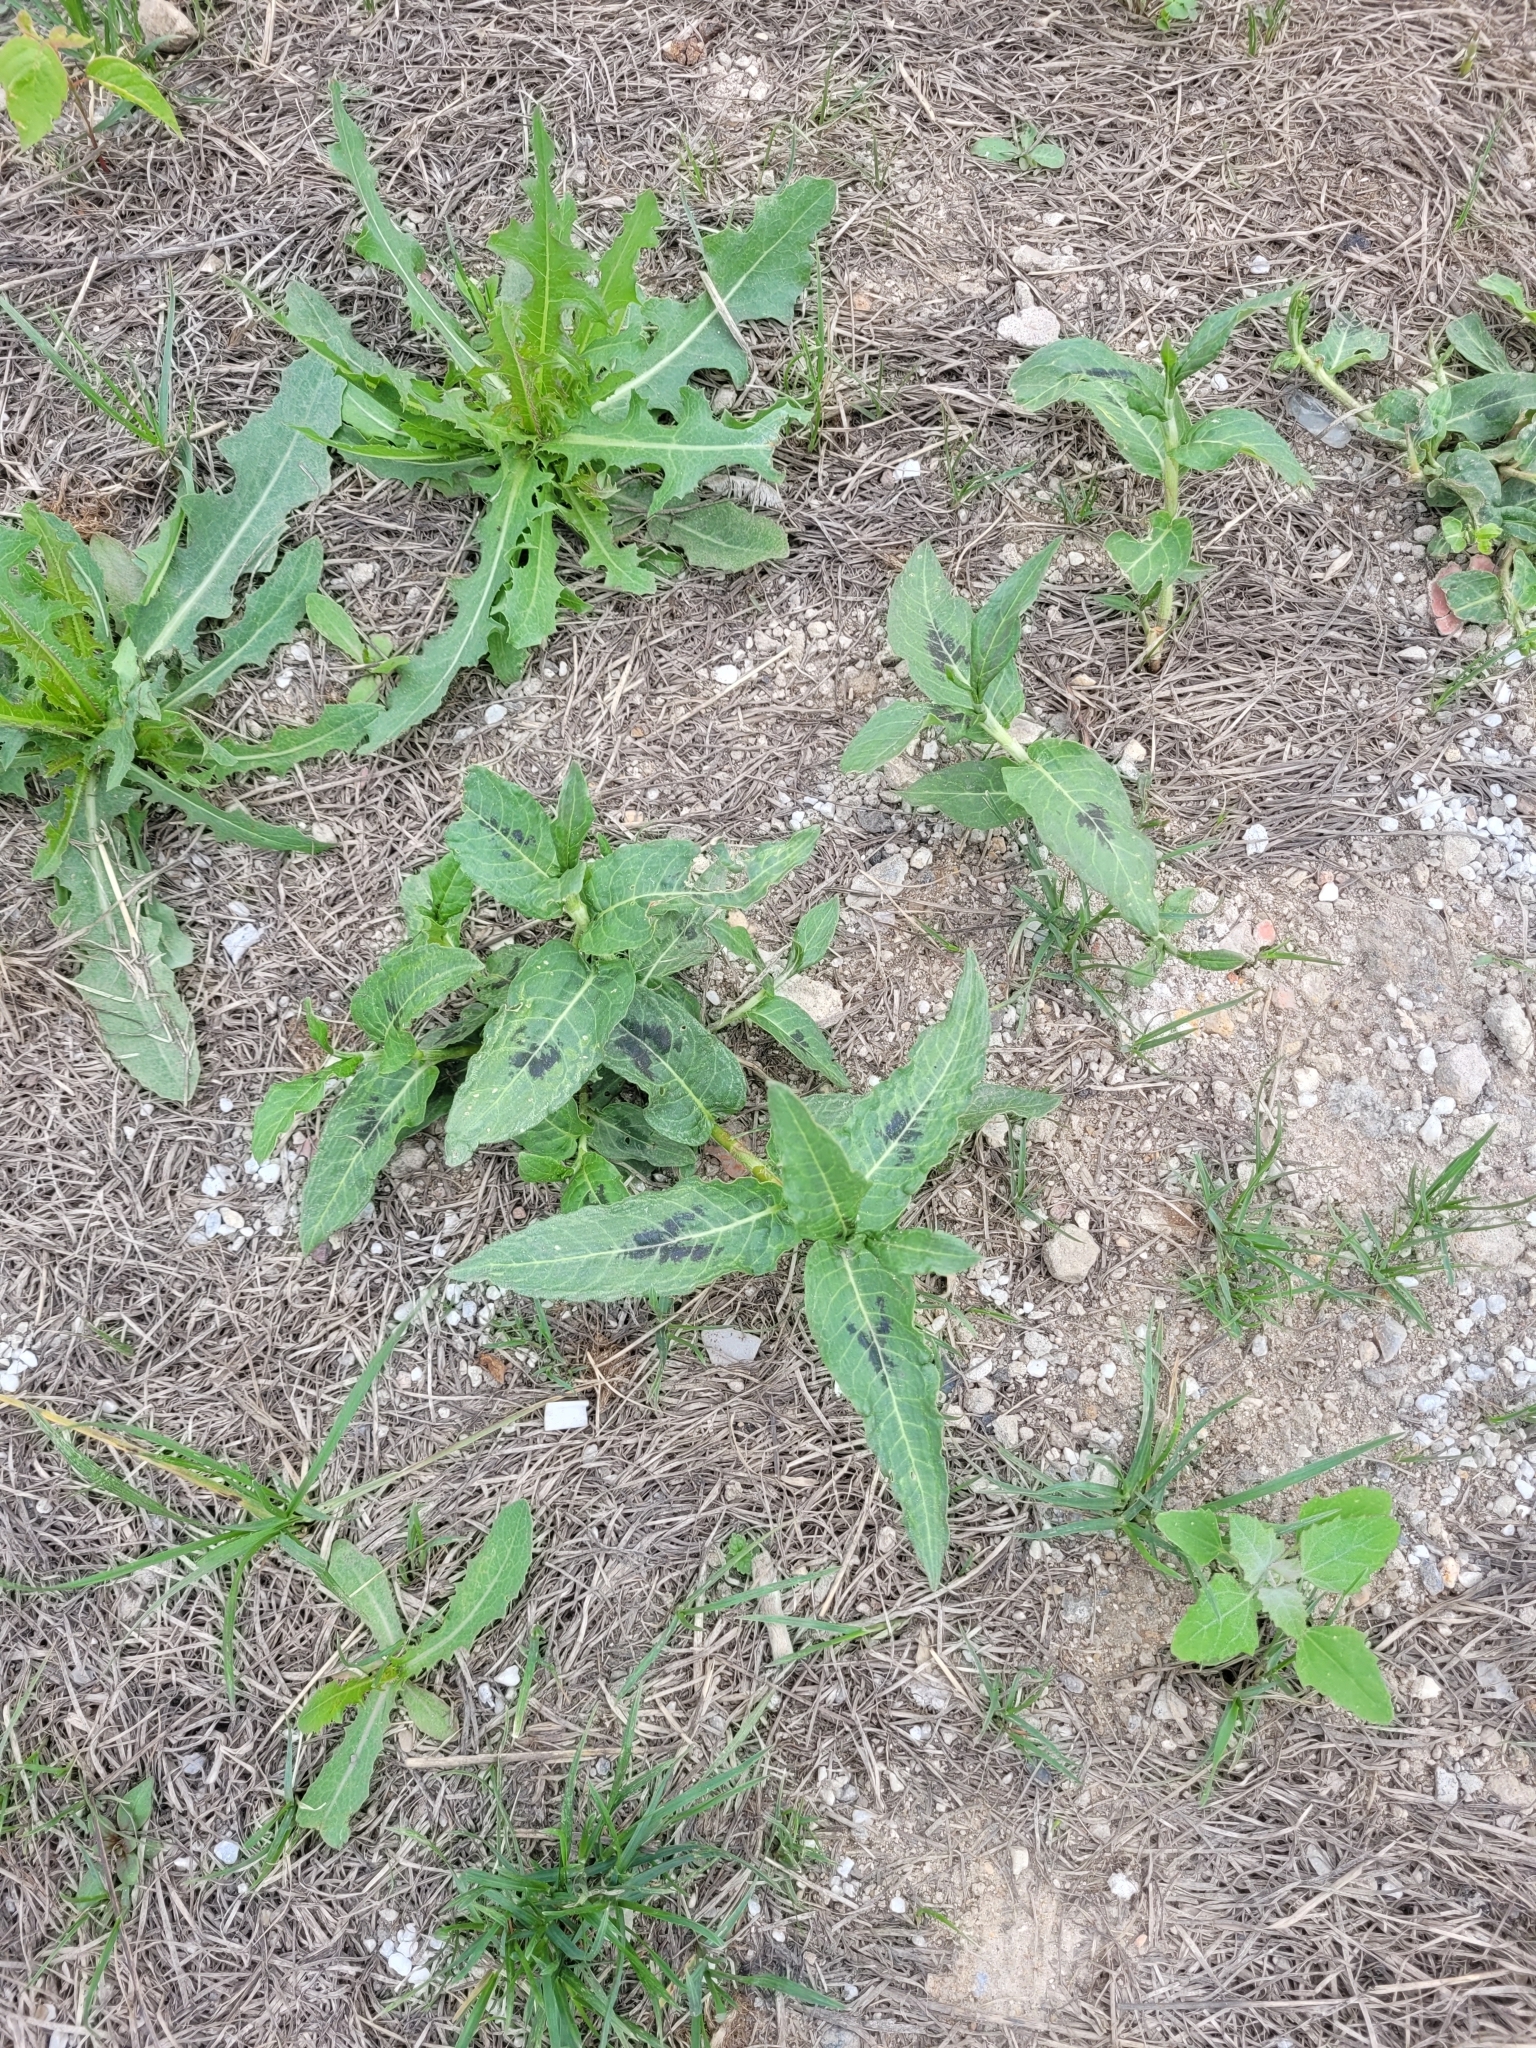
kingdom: Plantae
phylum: Tracheophyta
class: Magnoliopsida
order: Caryophyllales
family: Polygonaceae
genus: Persicaria
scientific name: Persicaria amphibia
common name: Amphibious bistort
